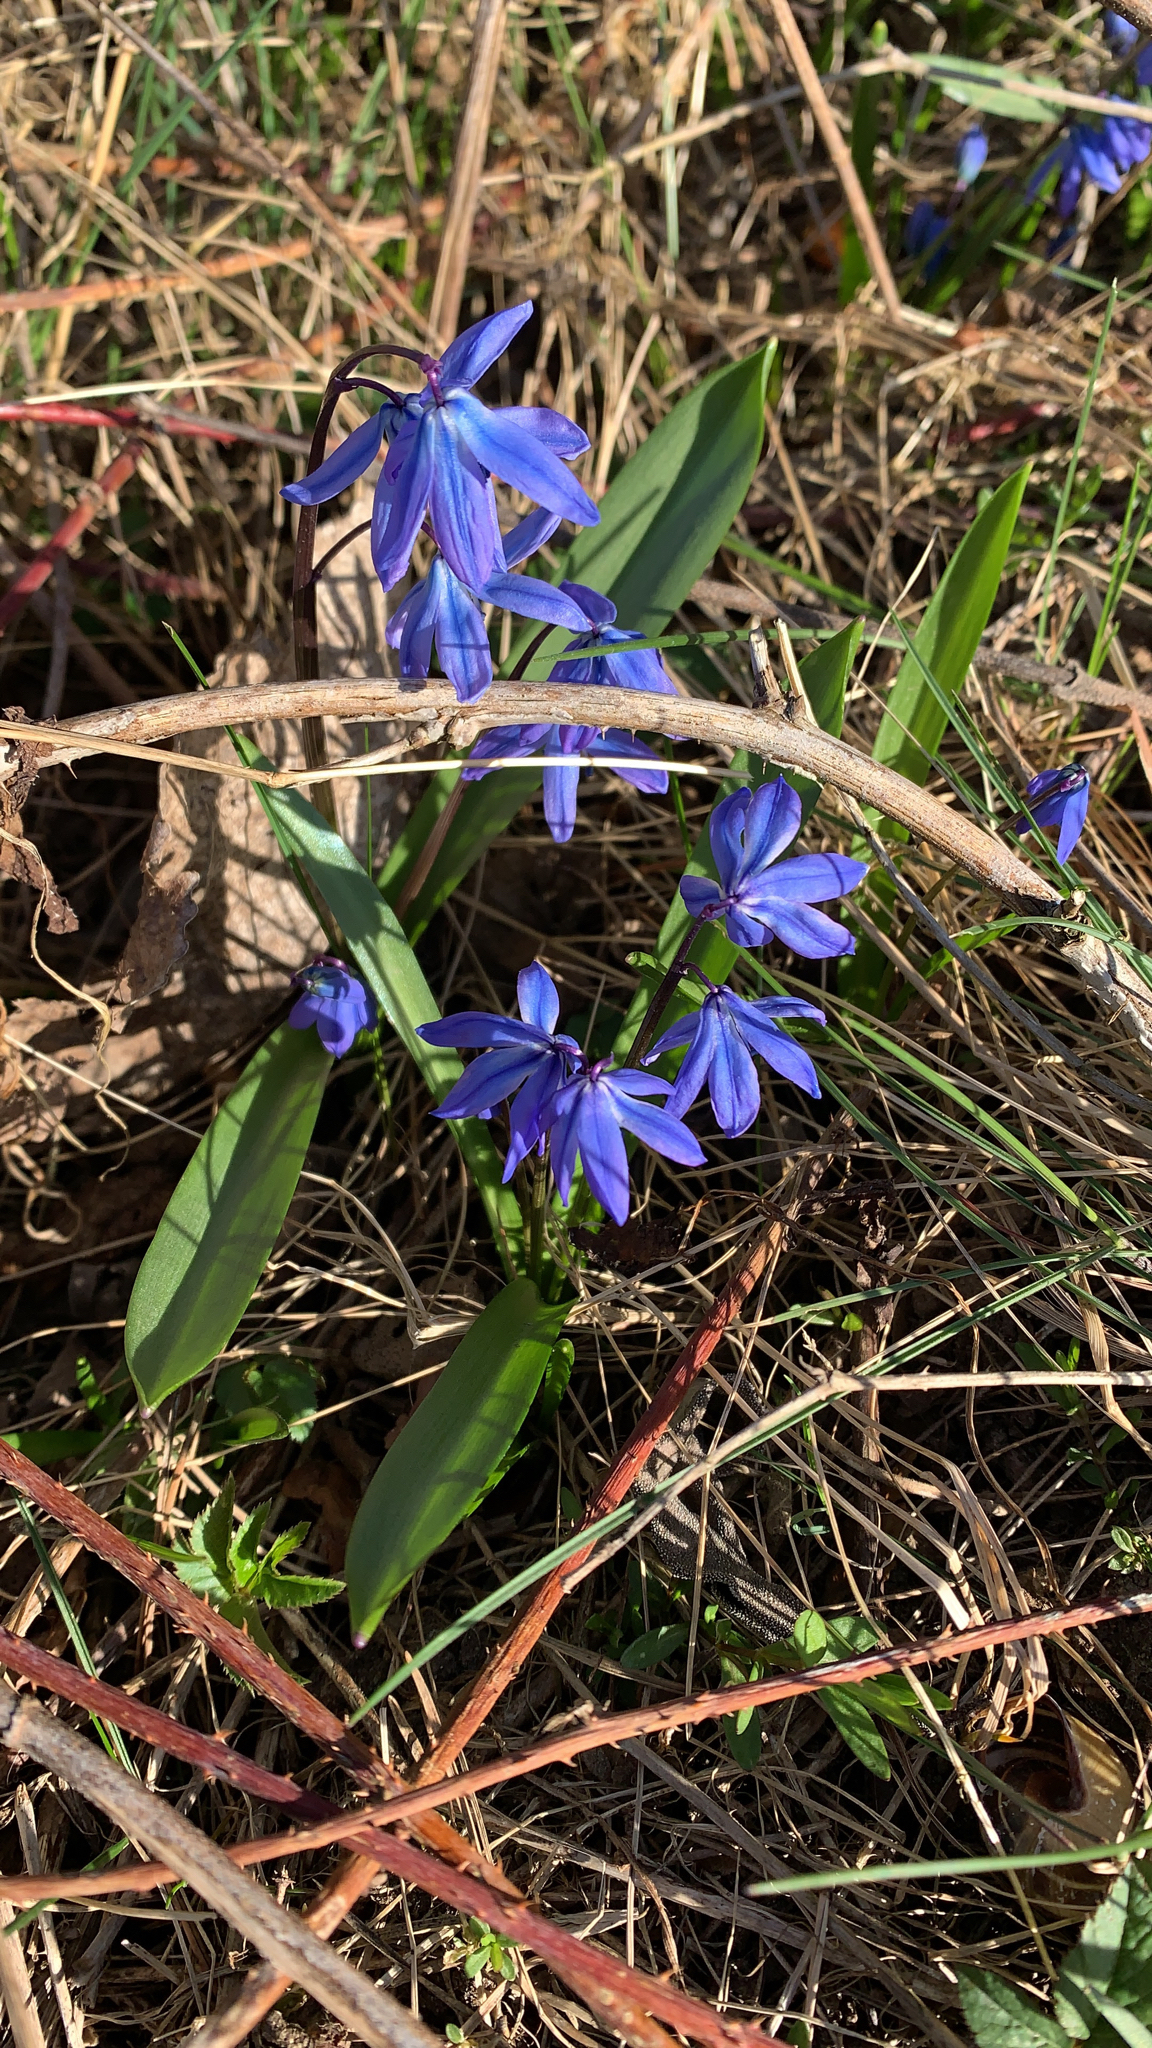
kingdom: Plantae
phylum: Tracheophyta
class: Liliopsida
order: Asparagales
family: Asparagaceae
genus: Scilla
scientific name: Scilla siberica
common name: Siberian squill
